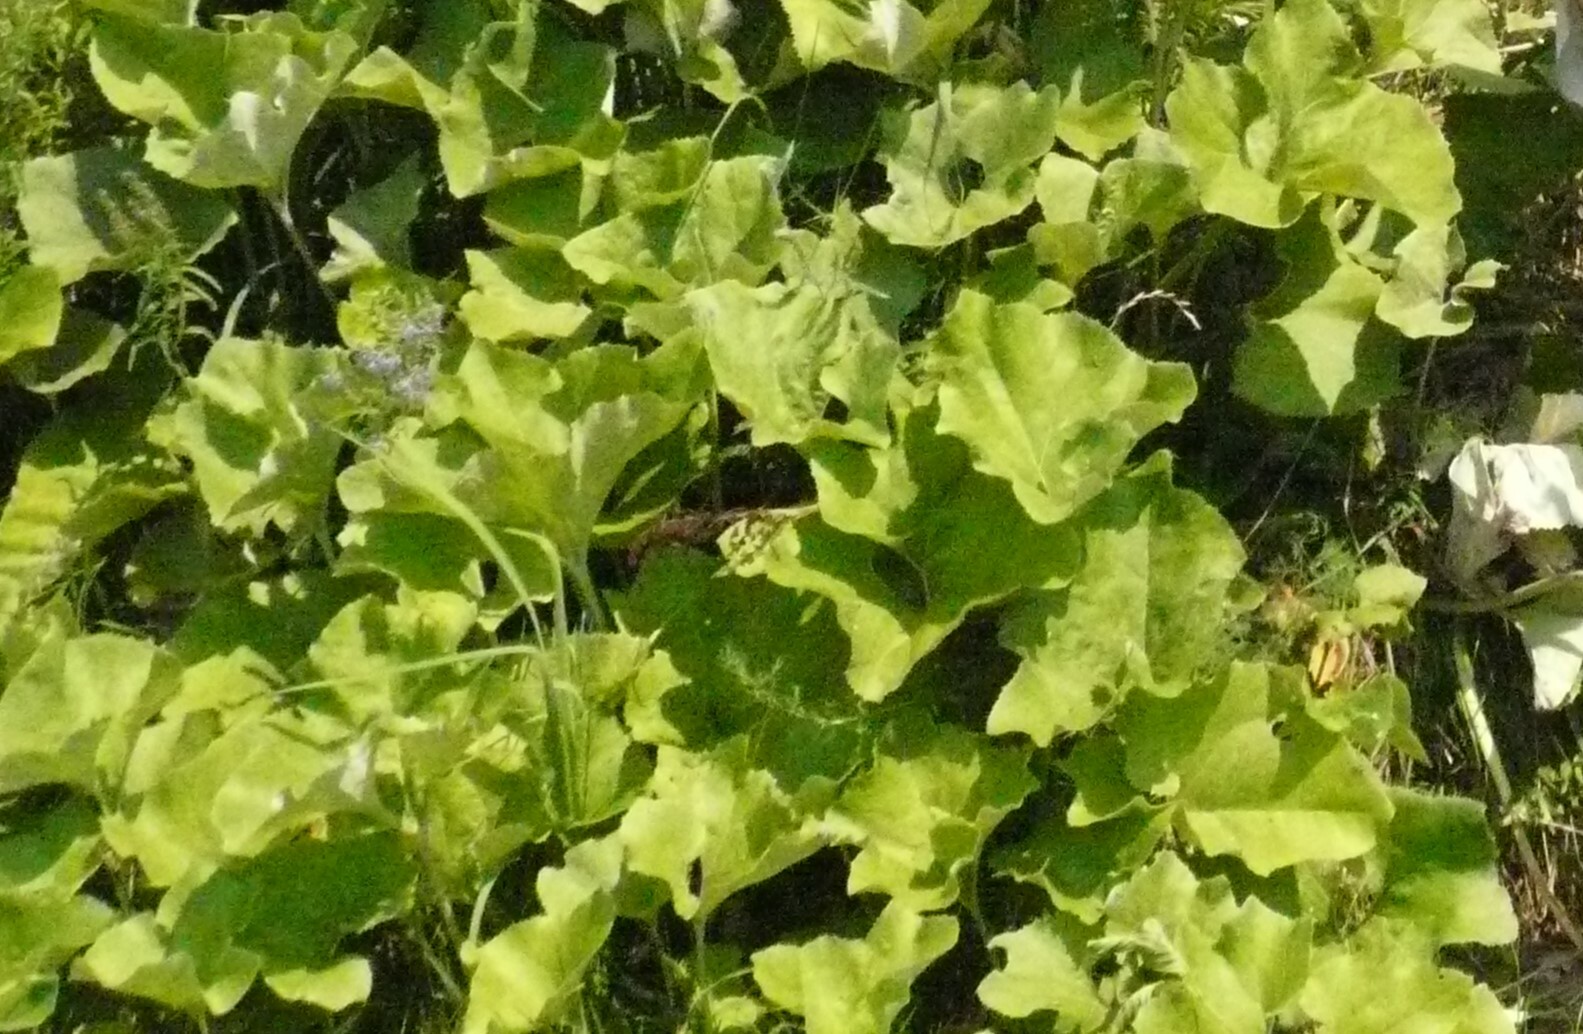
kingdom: Plantae
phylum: Tracheophyta
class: Magnoliopsida
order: Asterales
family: Asteraceae
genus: Petasites
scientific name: Petasites spurius
